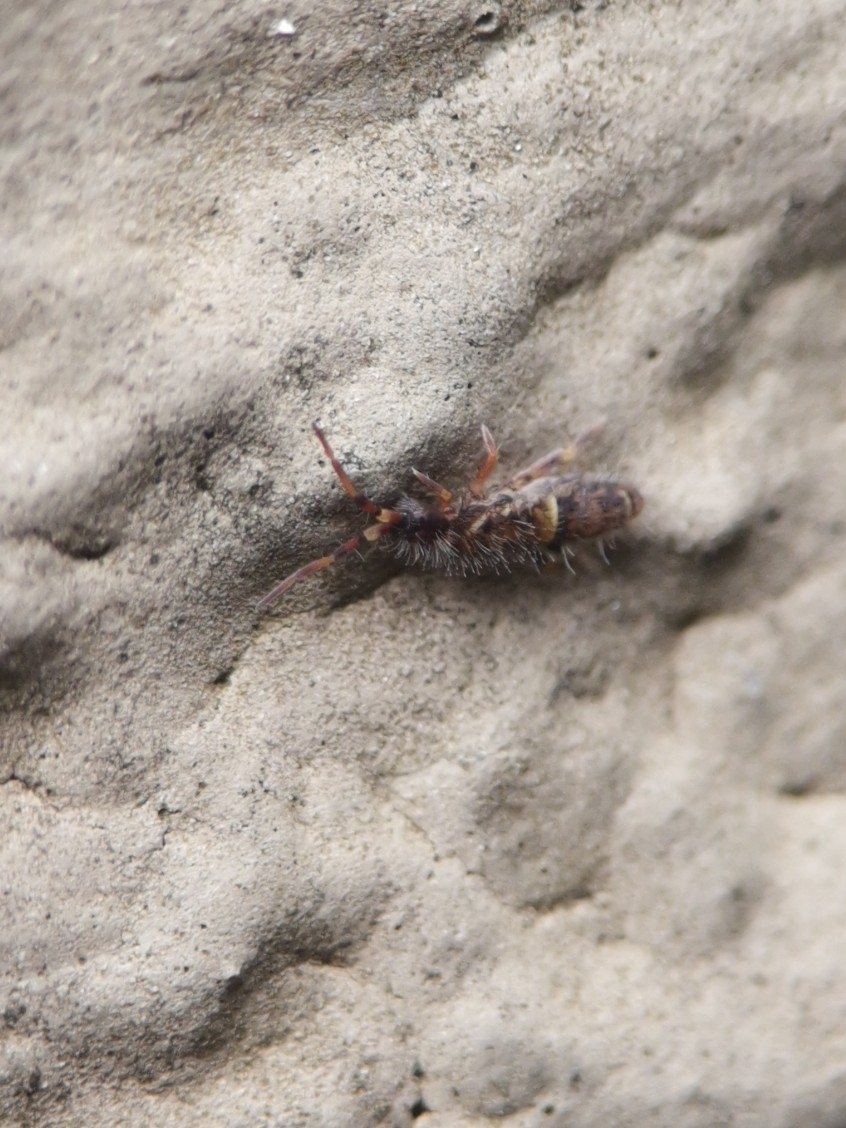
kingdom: Animalia
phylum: Arthropoda
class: Collembola
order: Entomobryomorpha
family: Orchesellidae
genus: Orchesella
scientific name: Orchesella cincta
